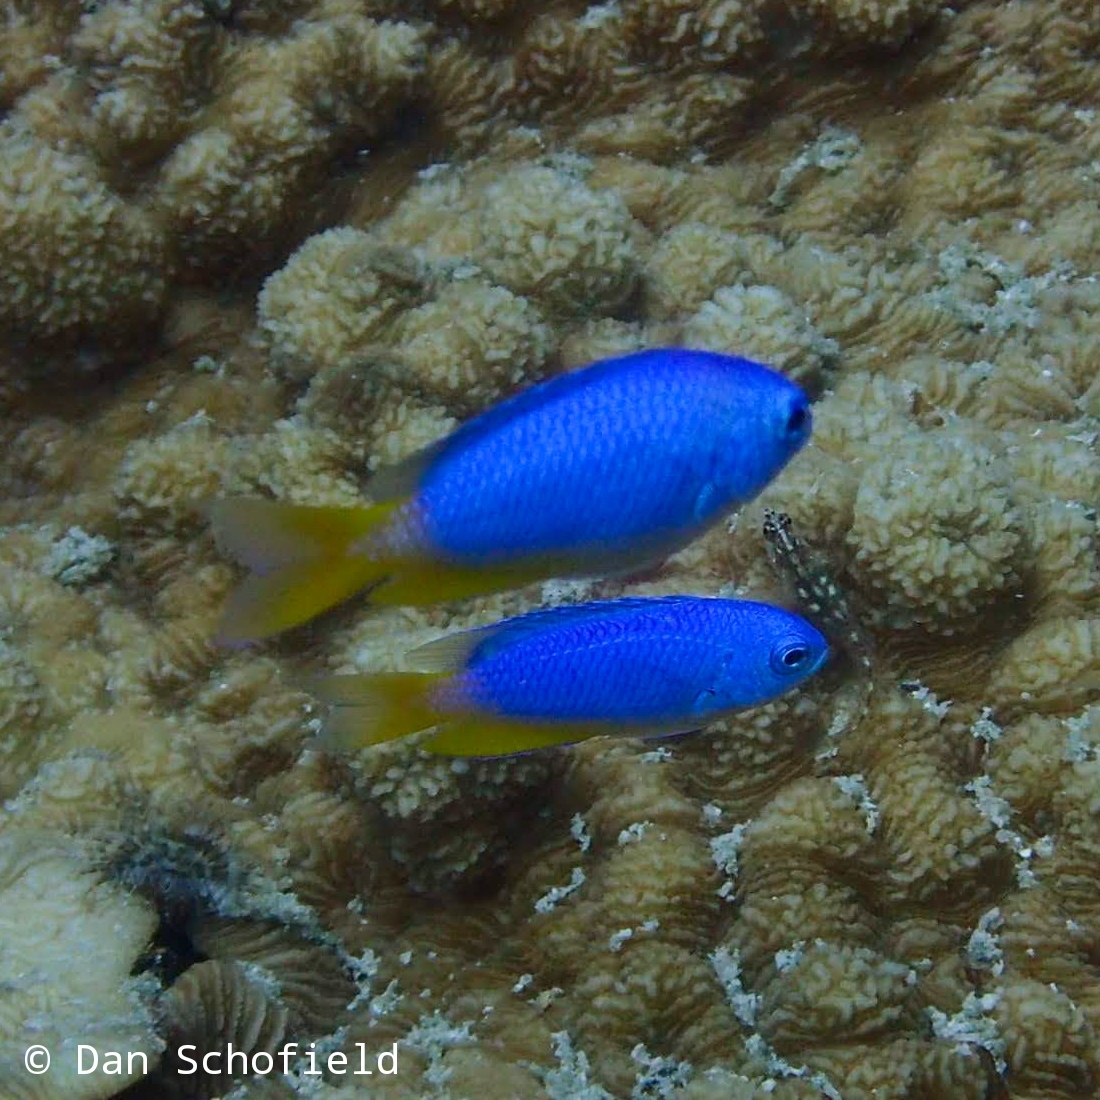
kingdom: Animalia
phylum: Chordata
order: Perciformes
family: Pomacentridae
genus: Pomacentrus
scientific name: Pomacentrus coelestis
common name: Neon damsel
